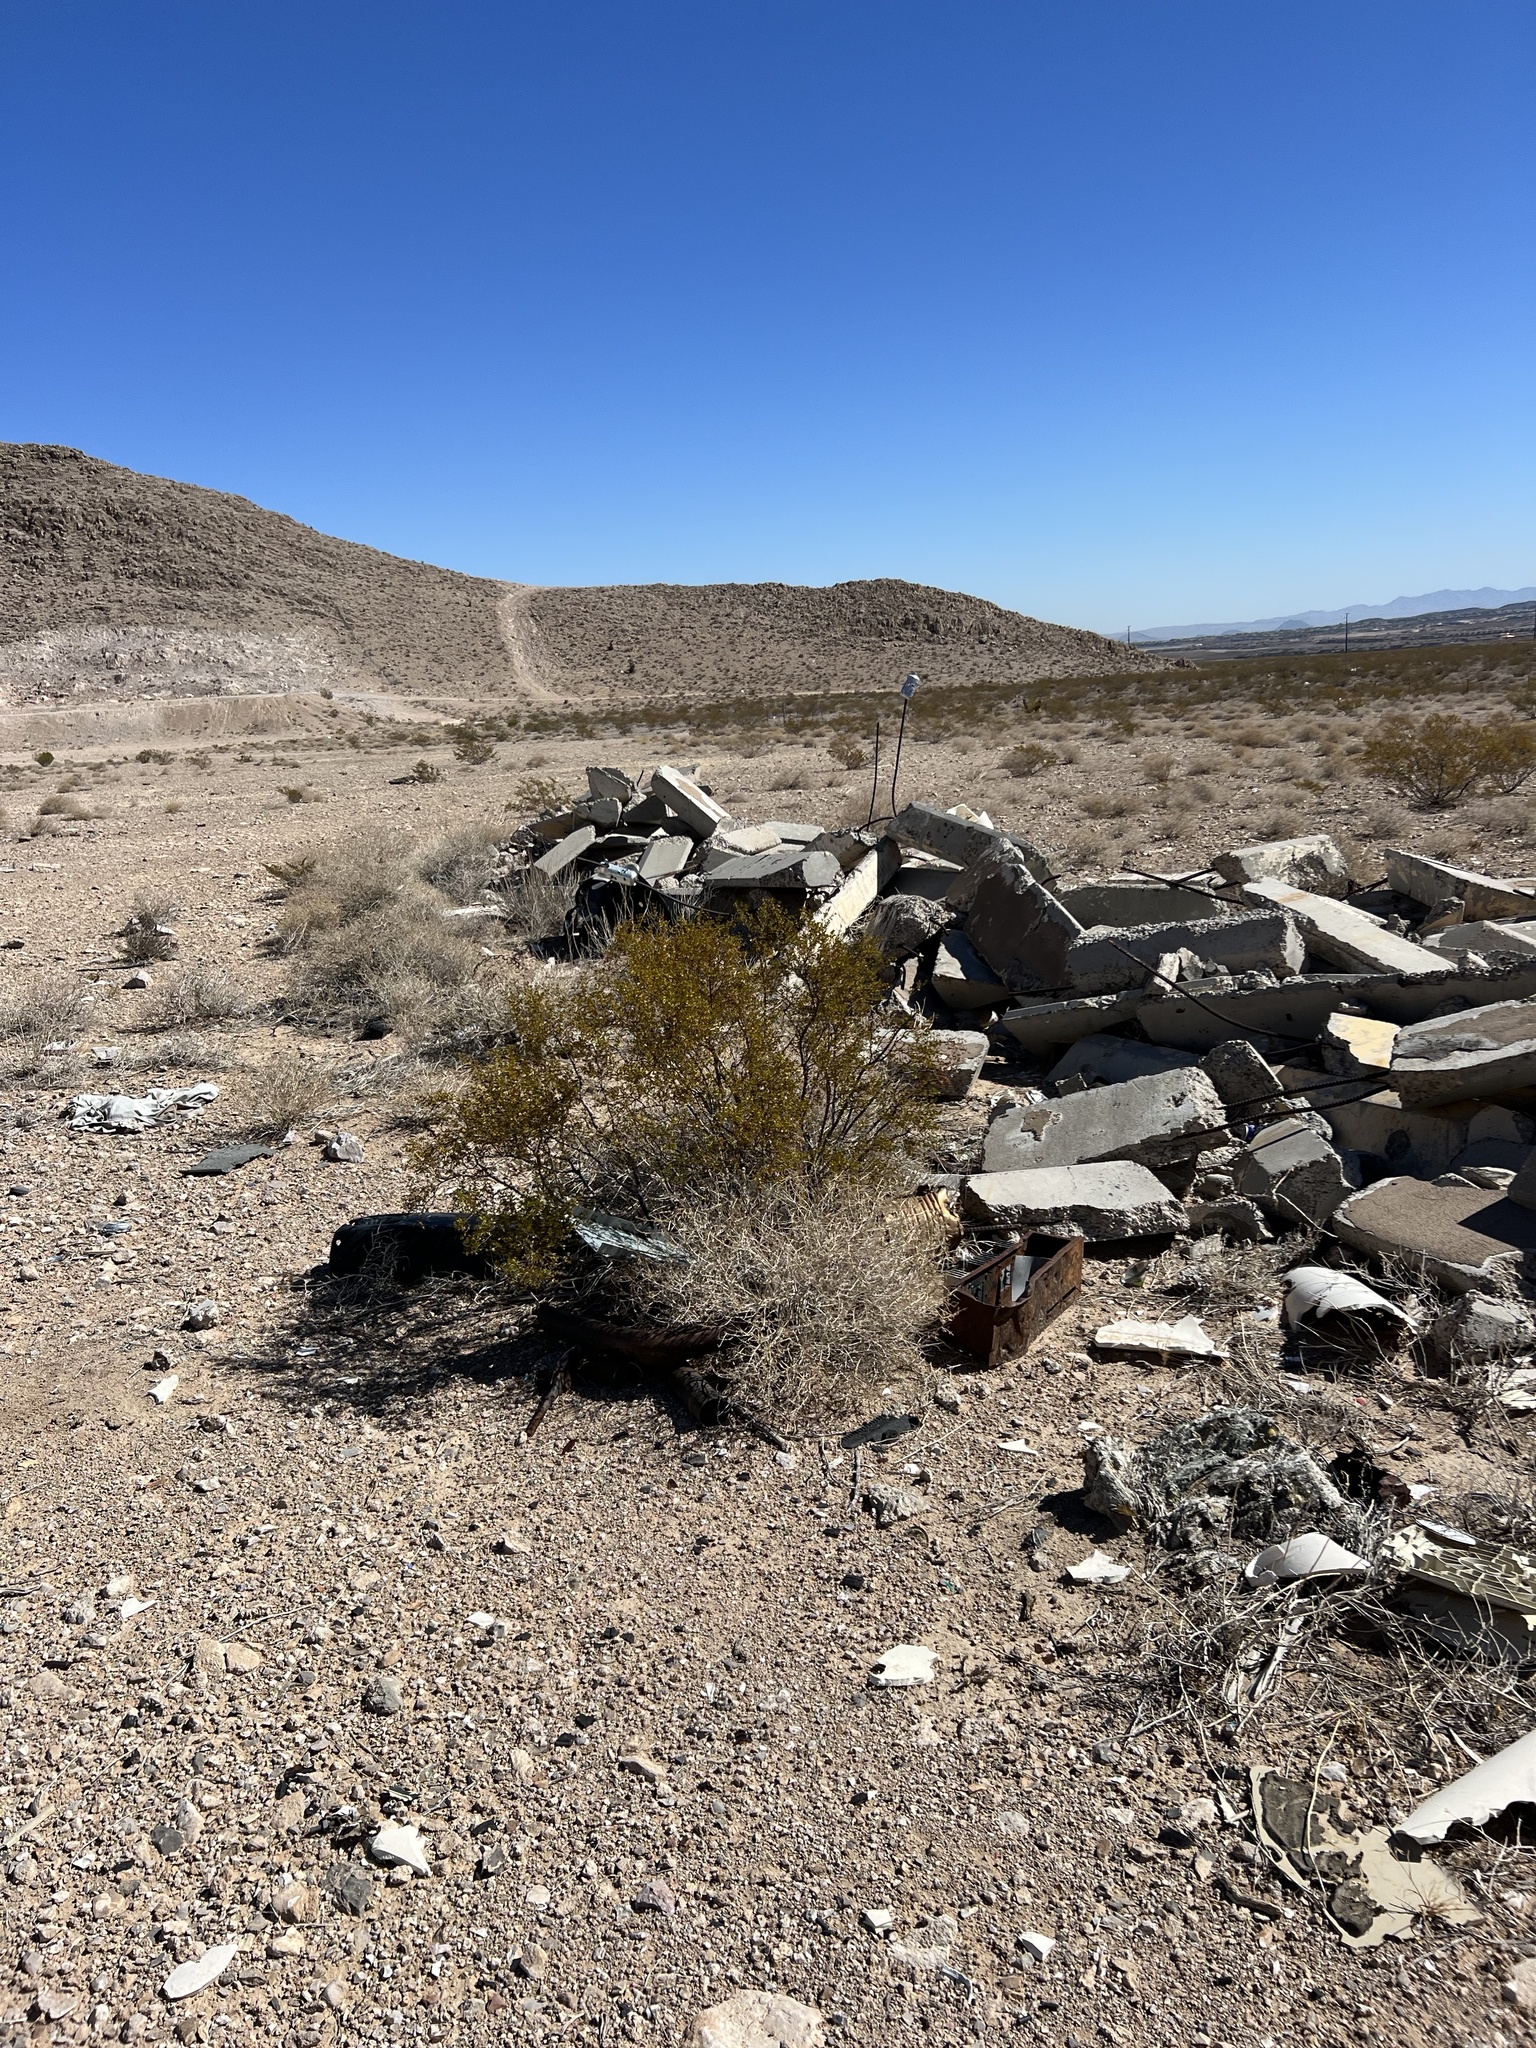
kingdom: Plantae
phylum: Tracheophyta
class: Magnoliopsida
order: Zygophyllales
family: Zygophyllaceae
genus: Larrea
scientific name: Larrea tridentata
